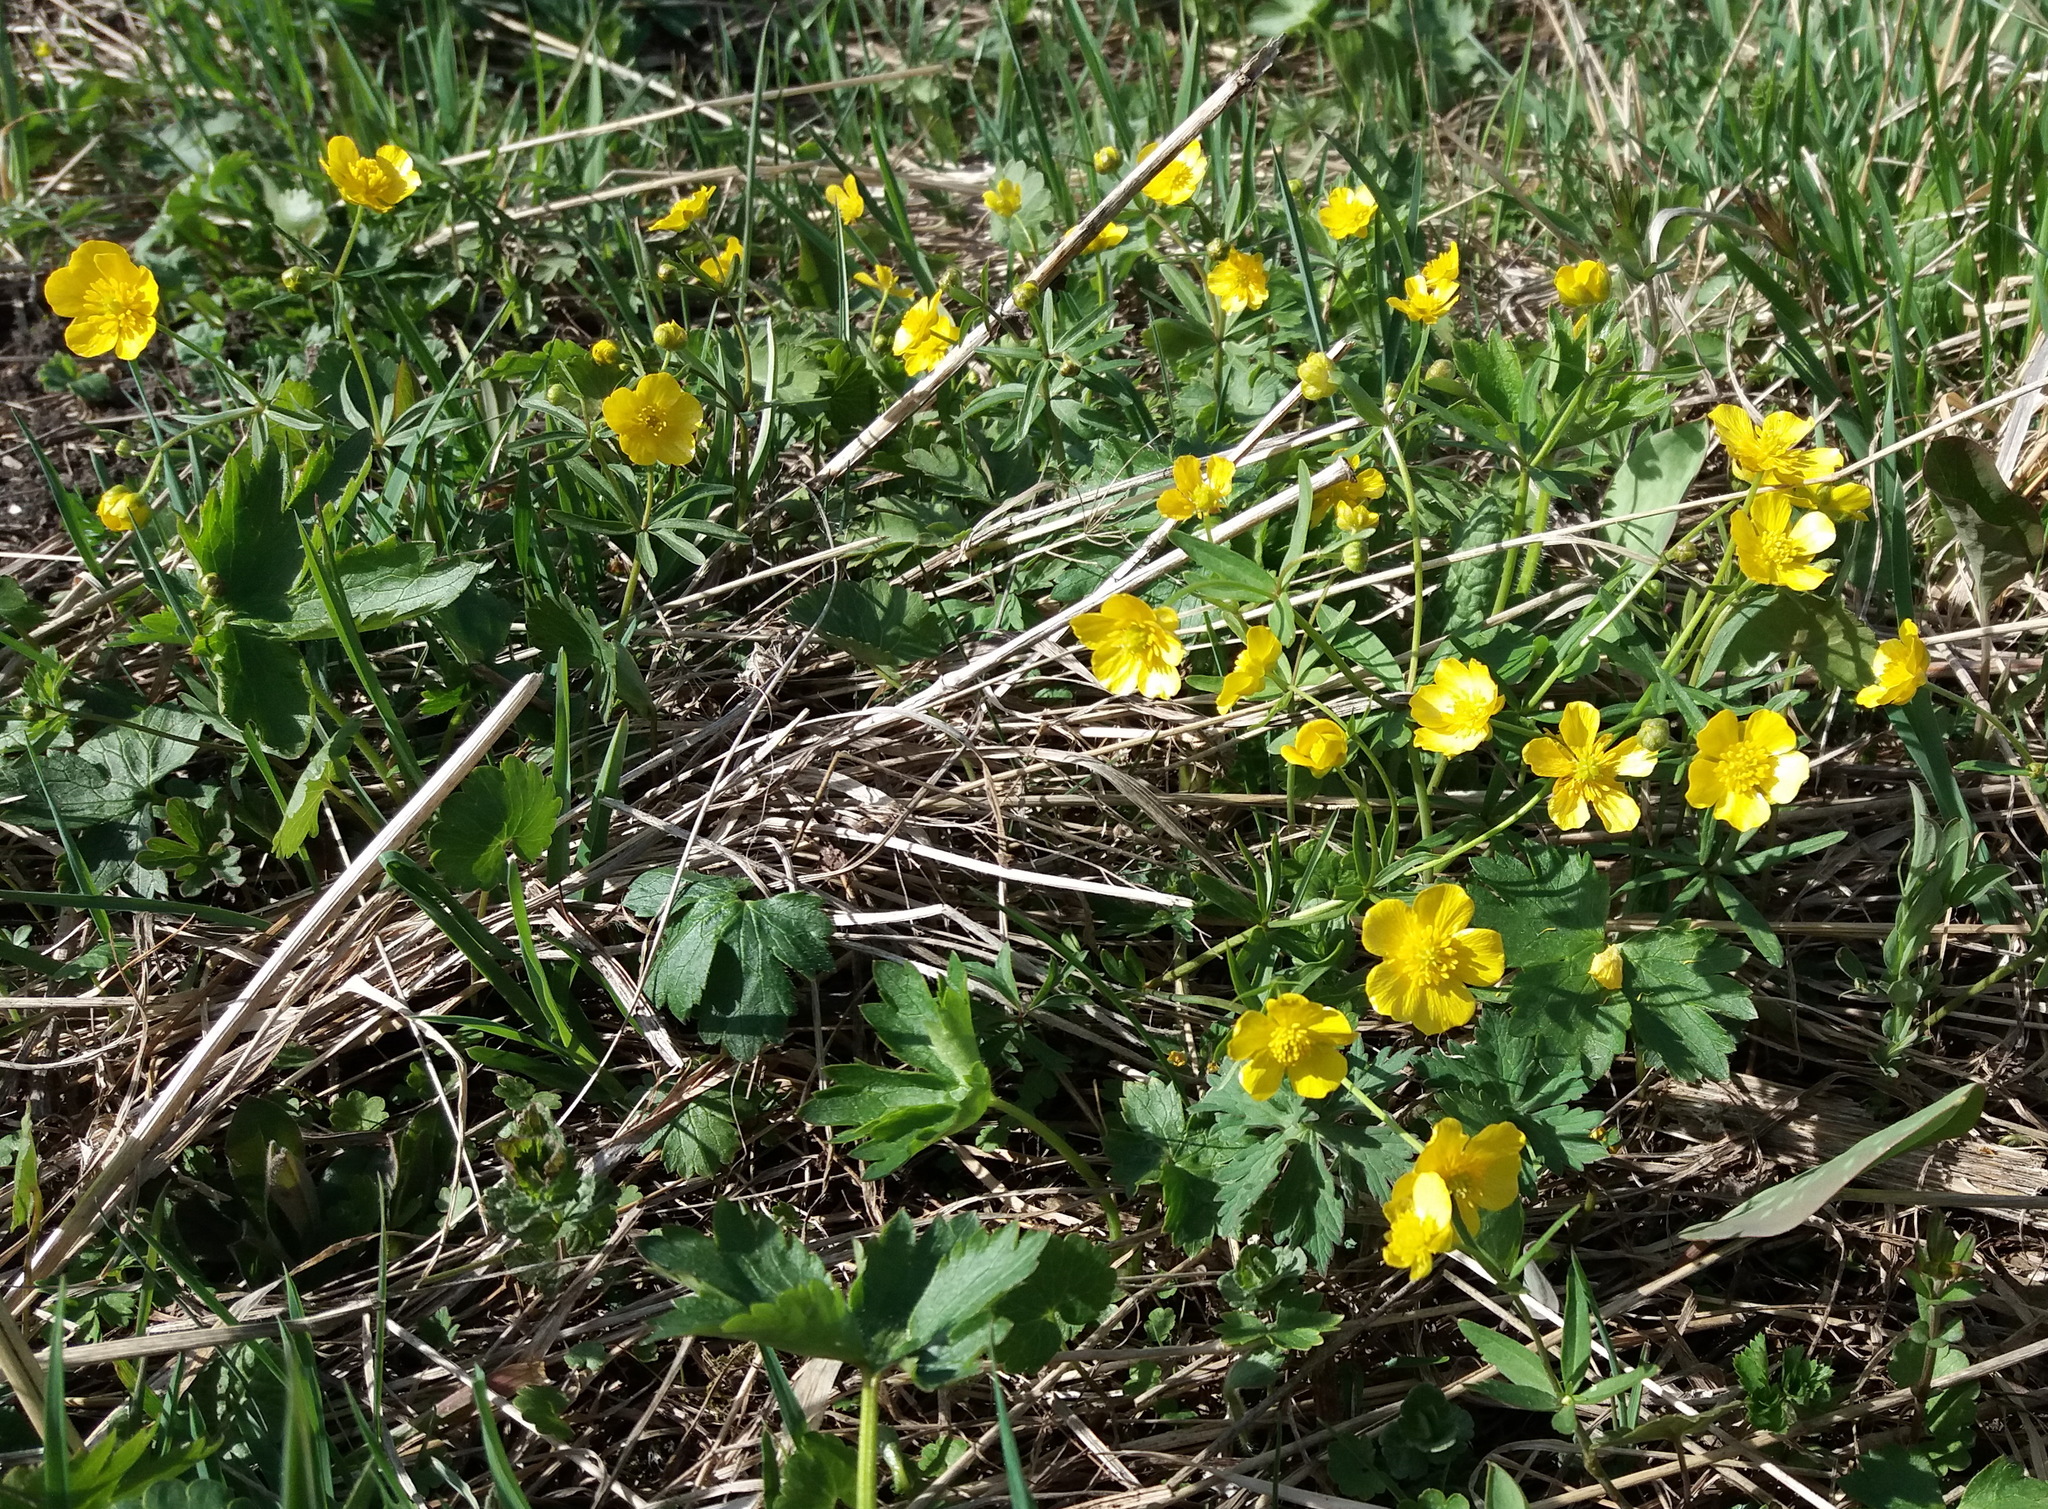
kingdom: Plantae
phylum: Tracheophyta
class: Magnoliopsida
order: Ranunculales
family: Ranunculaceae
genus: Ranunculus
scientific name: Ranunculus monophyllus
